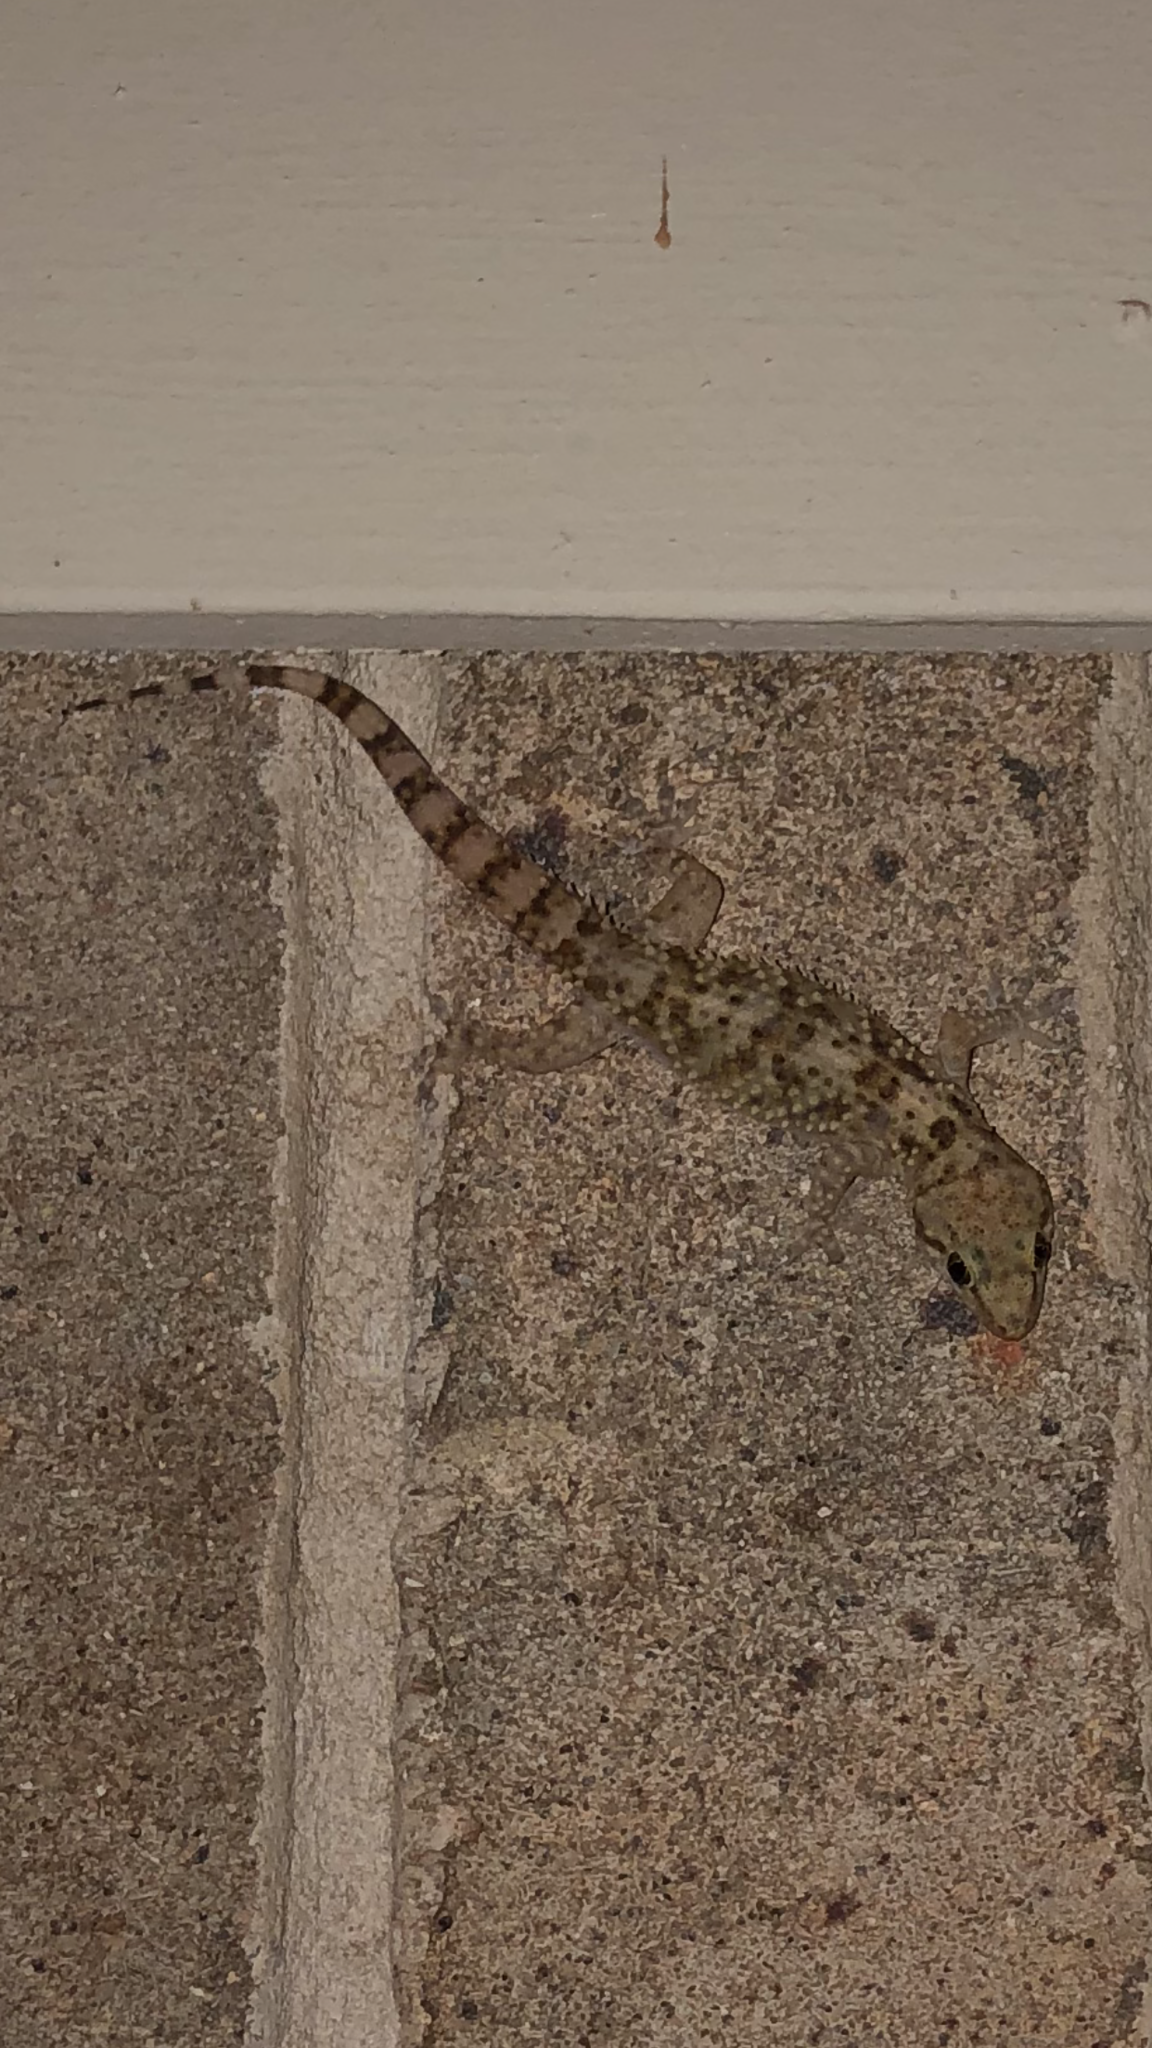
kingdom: Animalia
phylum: Chordata
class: Squamata
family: Gekkonidae
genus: Hemidactylus
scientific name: Hemidactylus turcicus
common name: Turkish gecko
